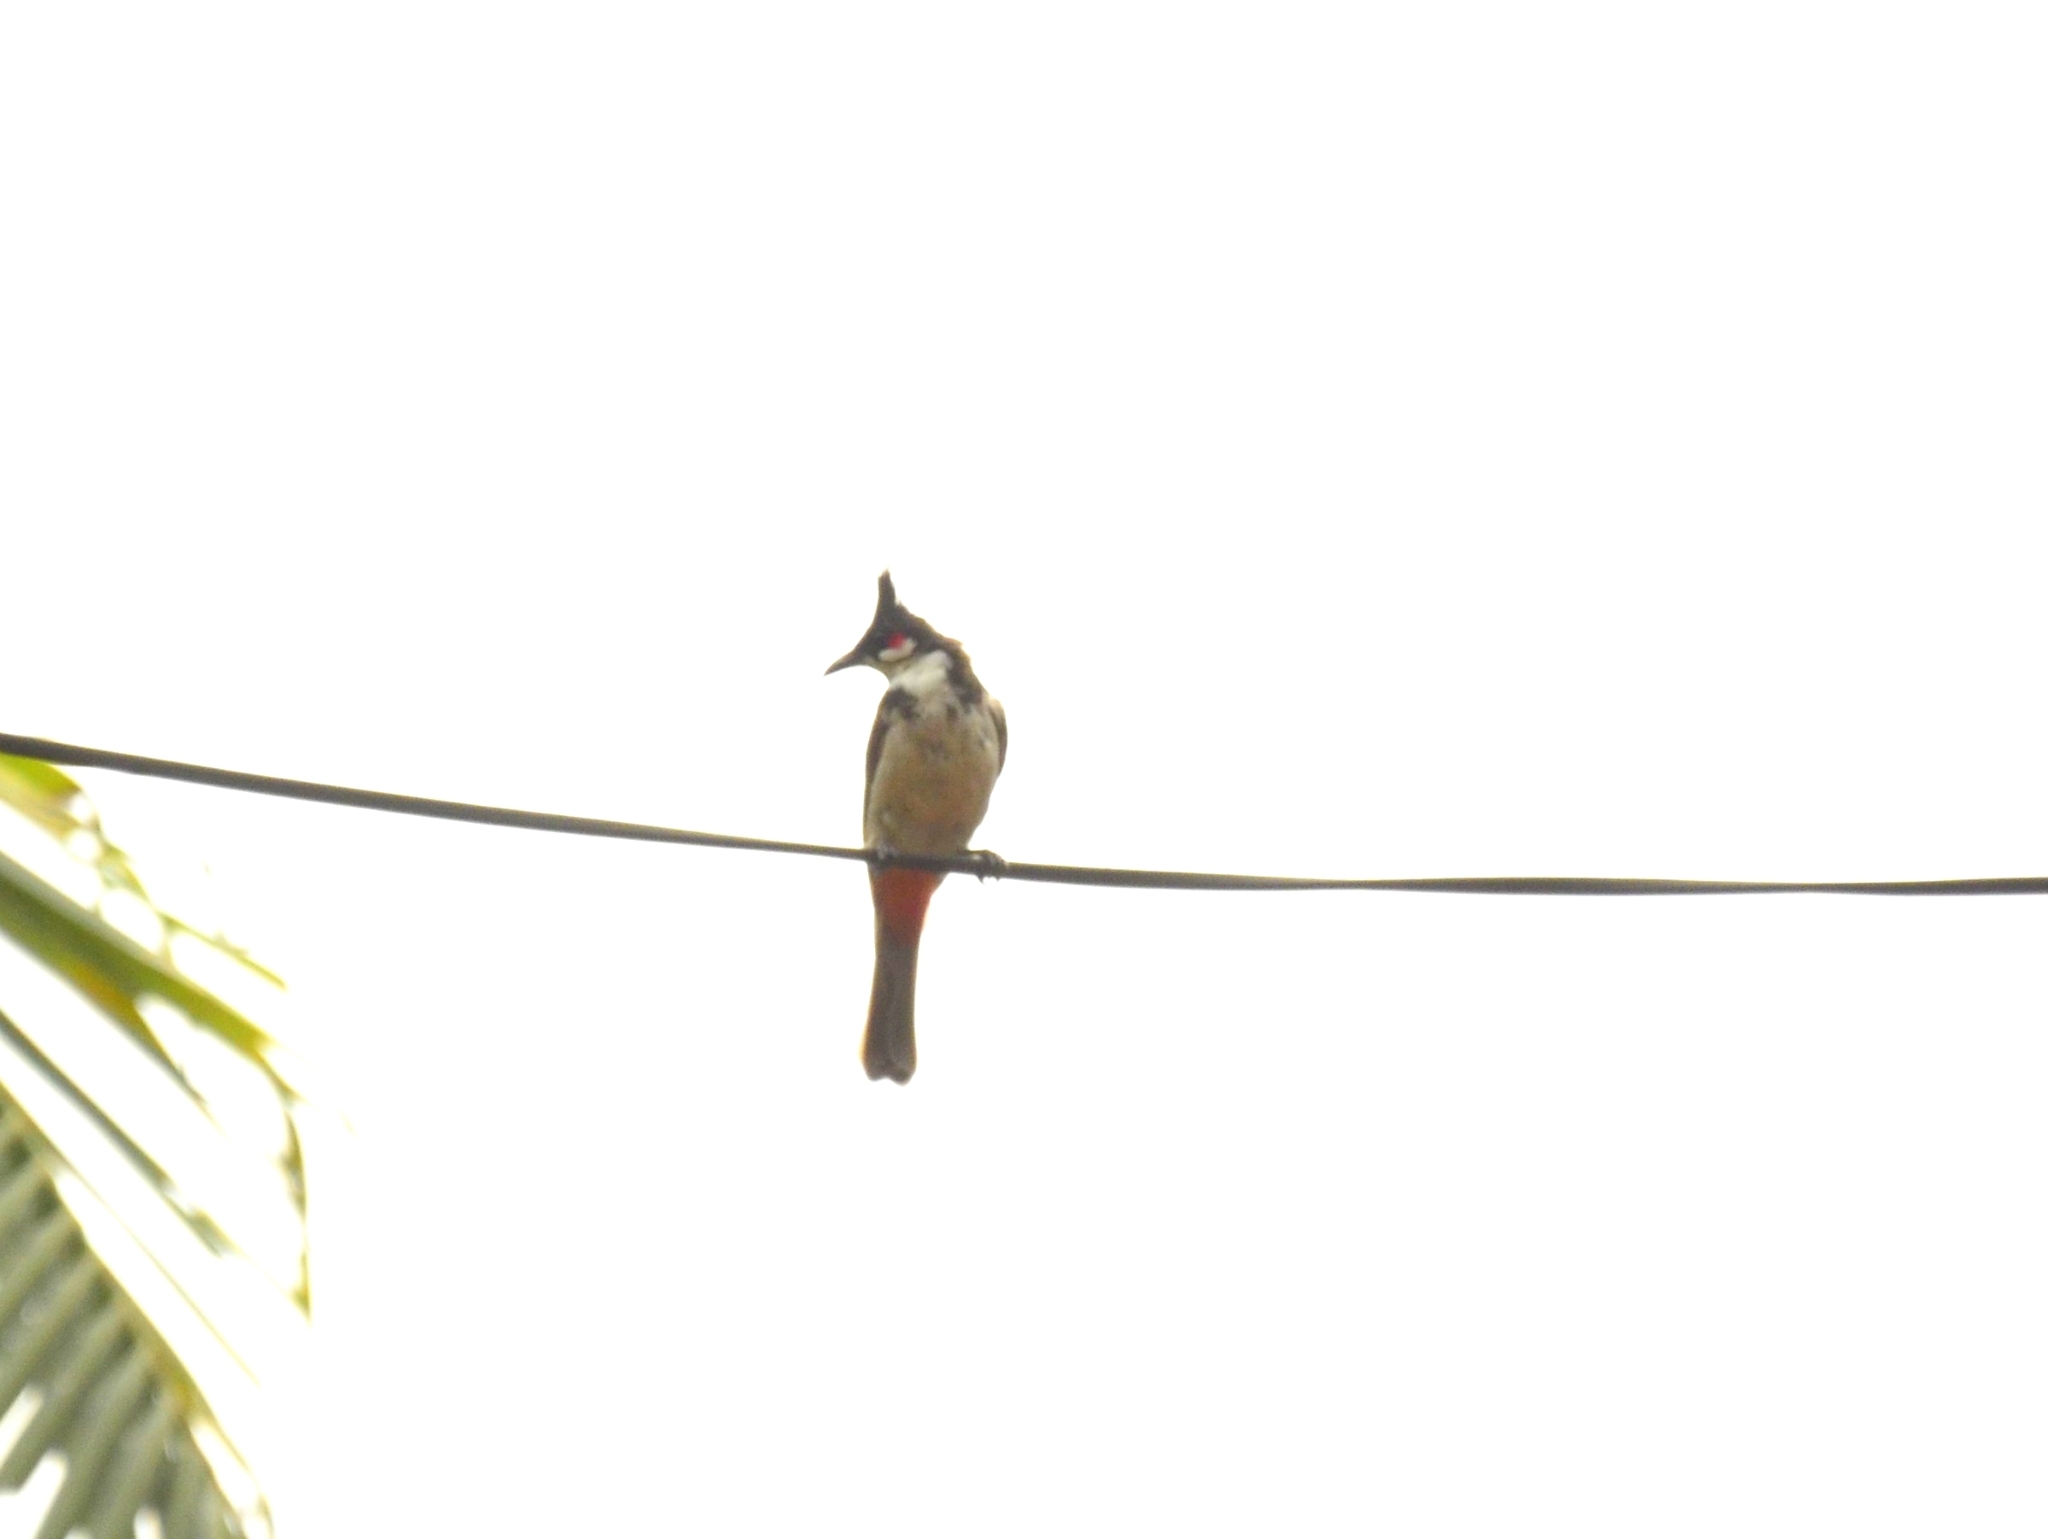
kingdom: Animalia
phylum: Chordata
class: Aves
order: Passeriformes
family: Pycnonotidae
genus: Pycnonotus
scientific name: Pycnonotus jocosus
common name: Red-whiskered bulbul
